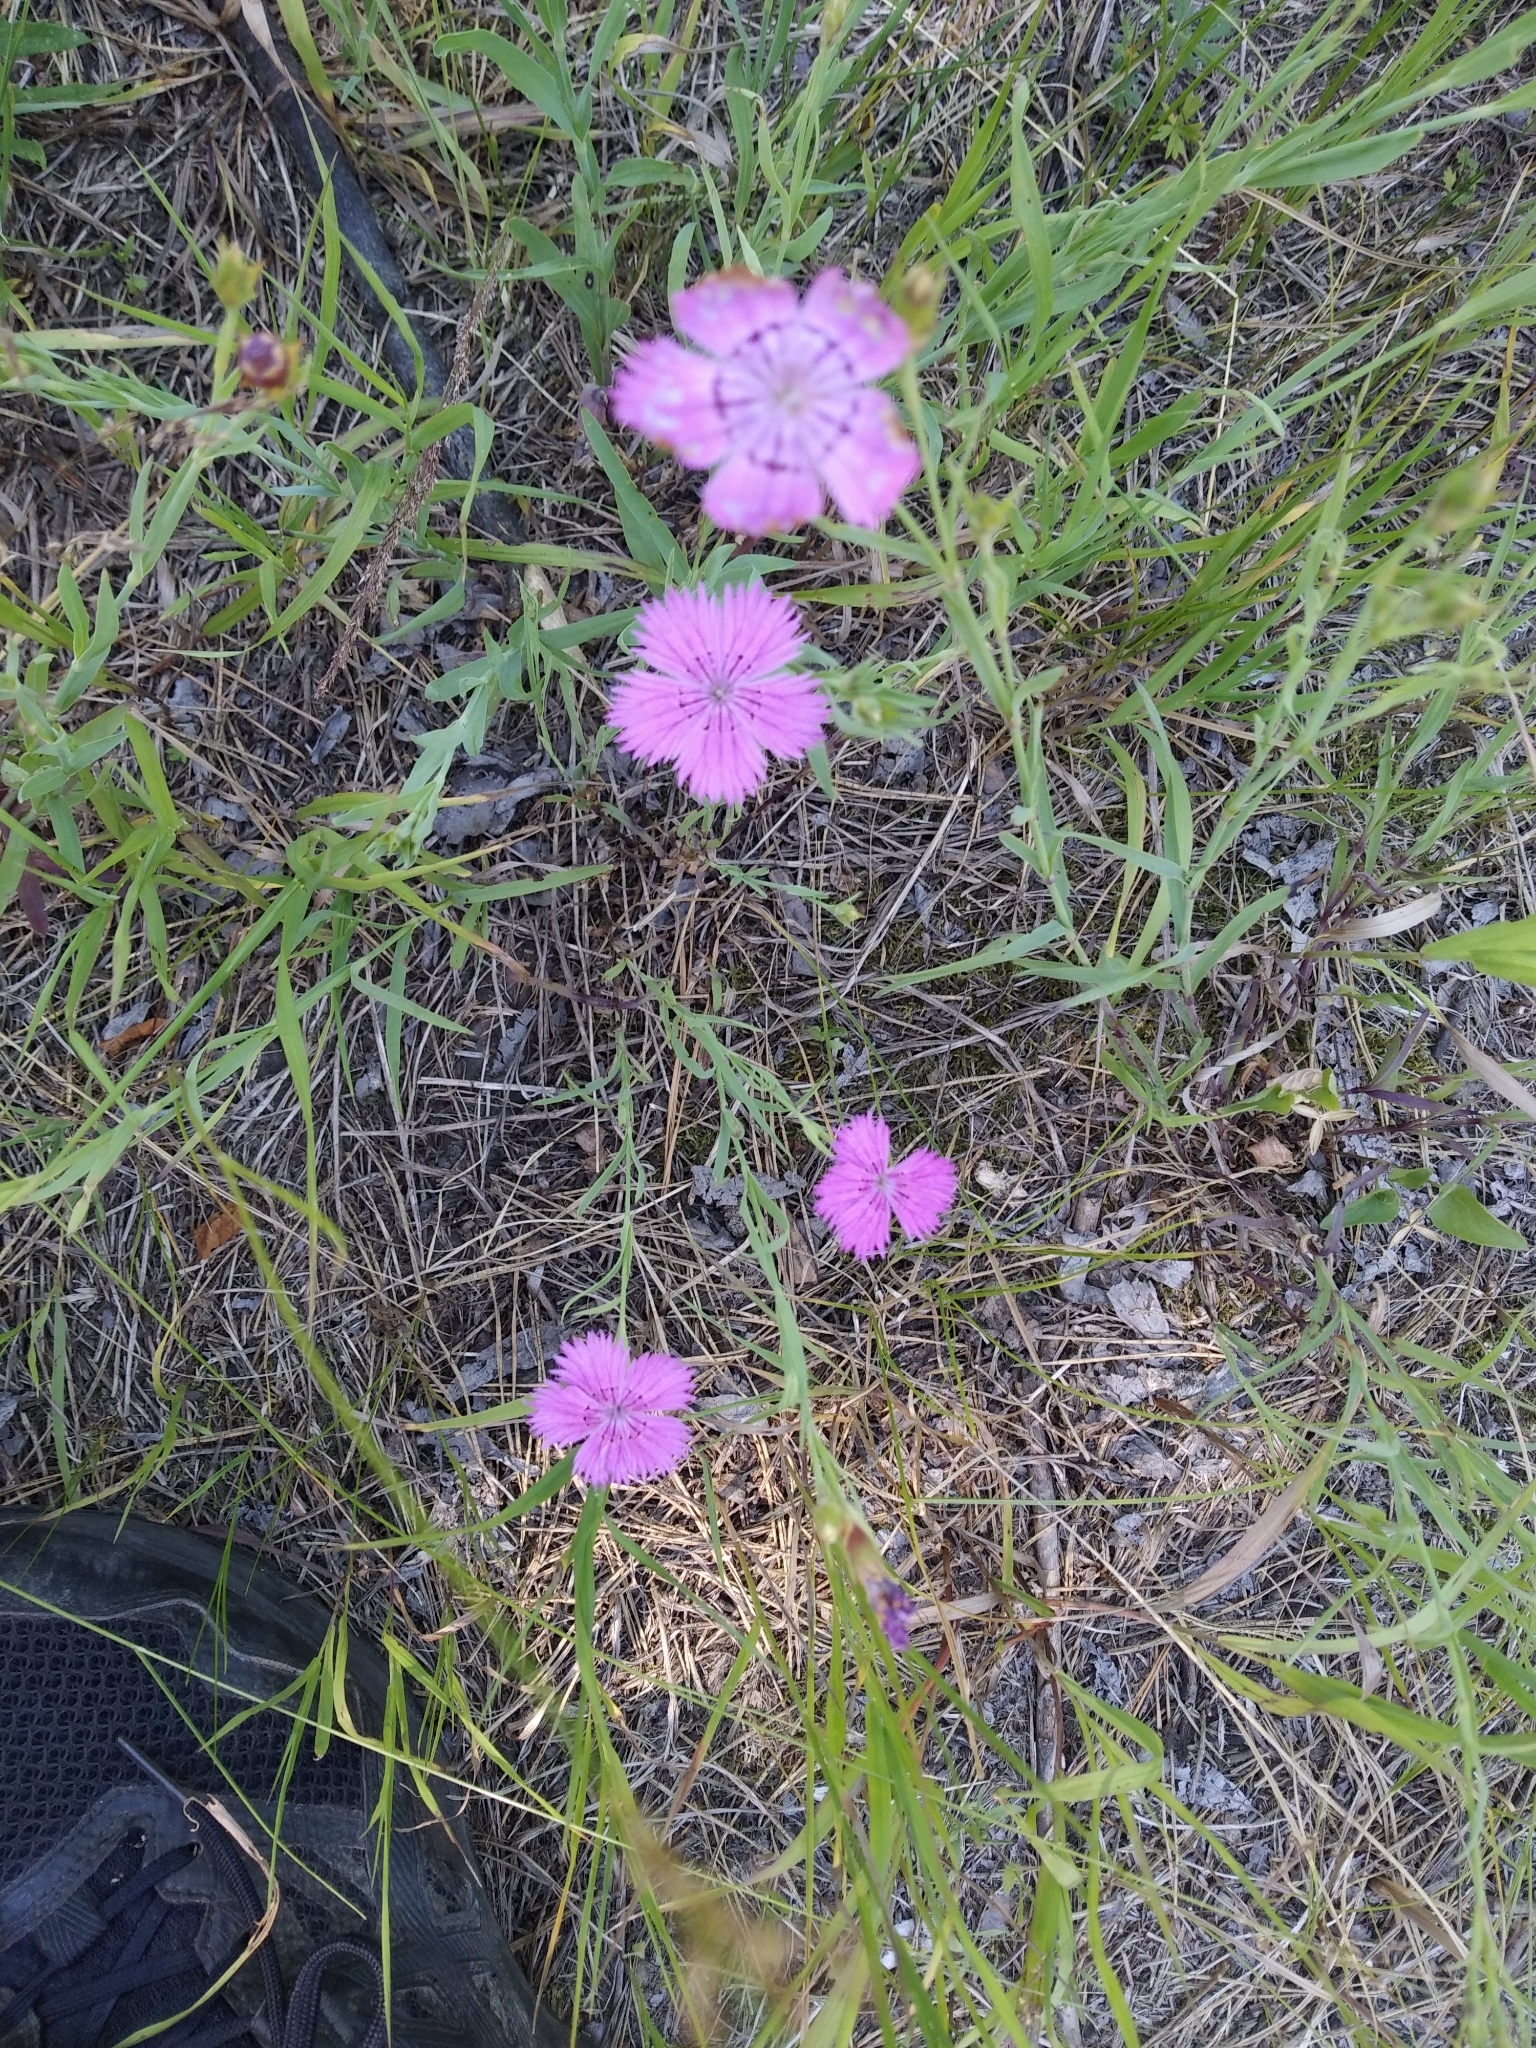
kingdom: Plantae
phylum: Tracheophyta
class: Magnoliopsida
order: Caryophyllales
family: Caryophyllaceae
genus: Dianthus
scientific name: Dianthus chinensis
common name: Rainbow pink
